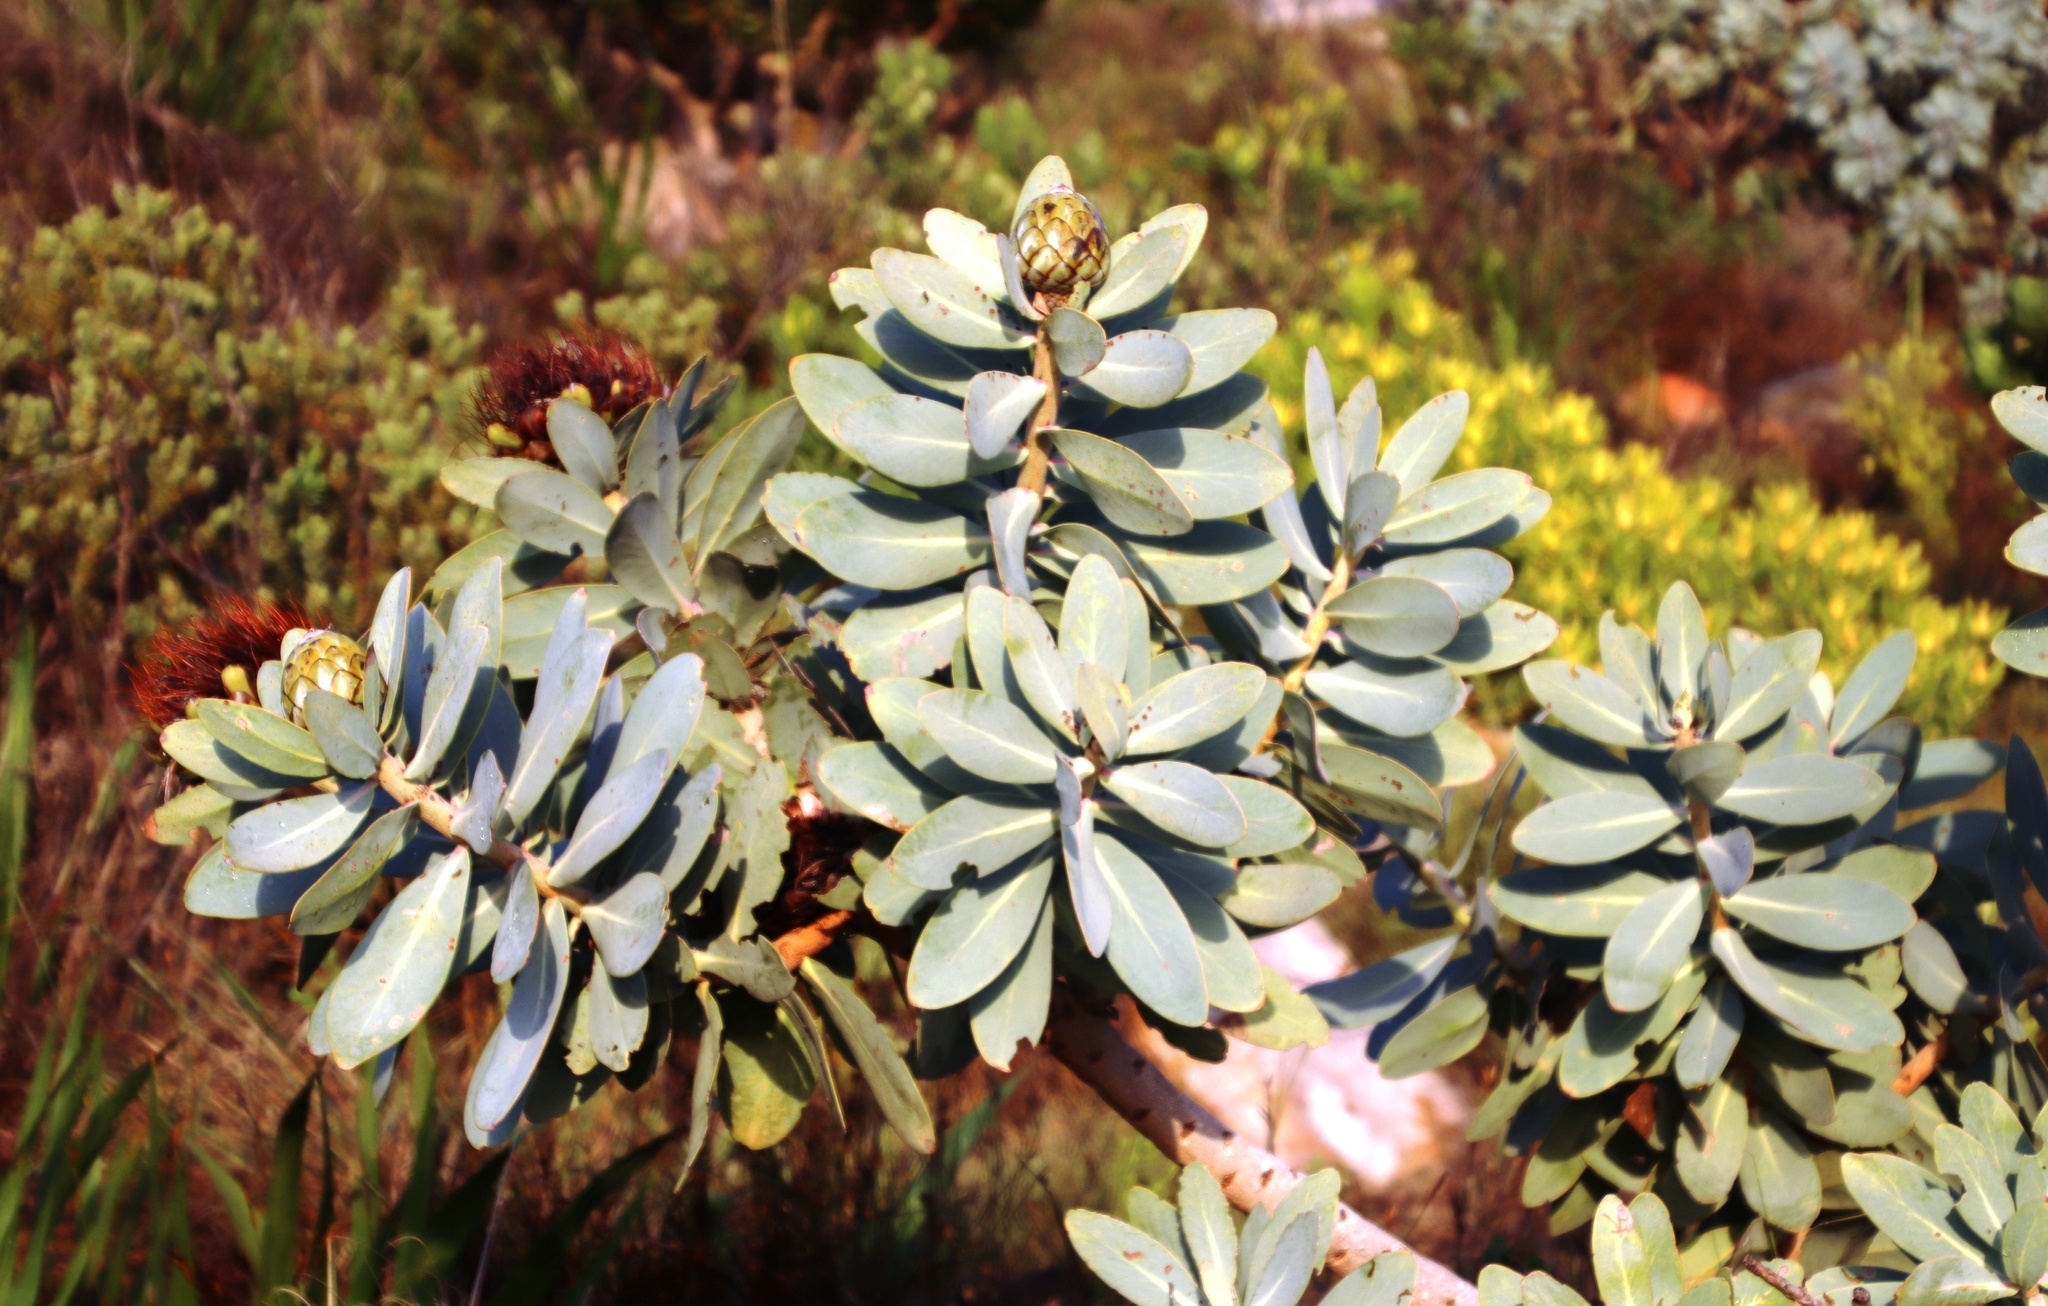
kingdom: Plantae
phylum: Tracheophyta
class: Magnoliopsida
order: Proteales
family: Proteaceae
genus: Protea
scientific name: Protea nitida
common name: Tree protea
